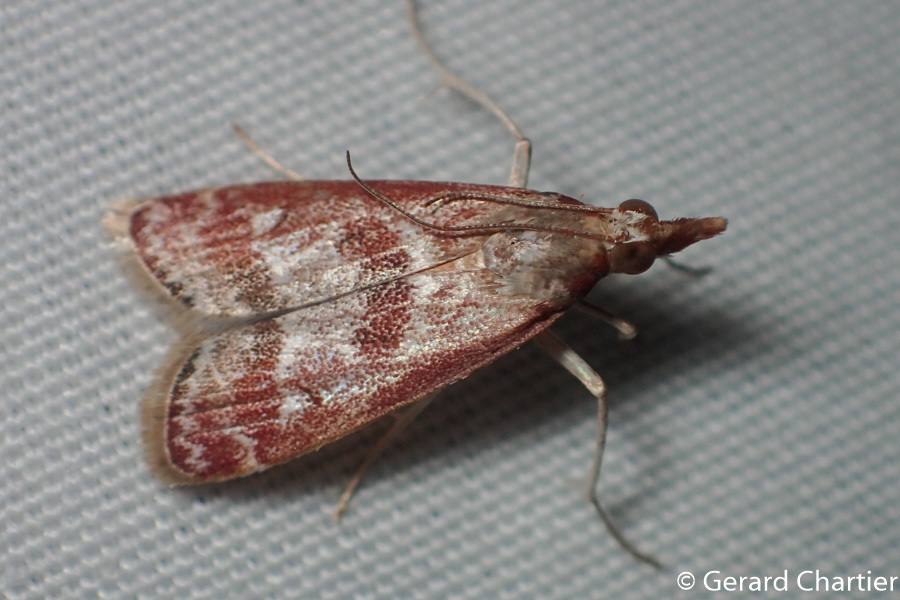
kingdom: Animalia
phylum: Arthropoda
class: Insecta
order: Lepidoptera
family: Crambidae
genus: Syntonarcha
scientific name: Syntonarcha iriastis
